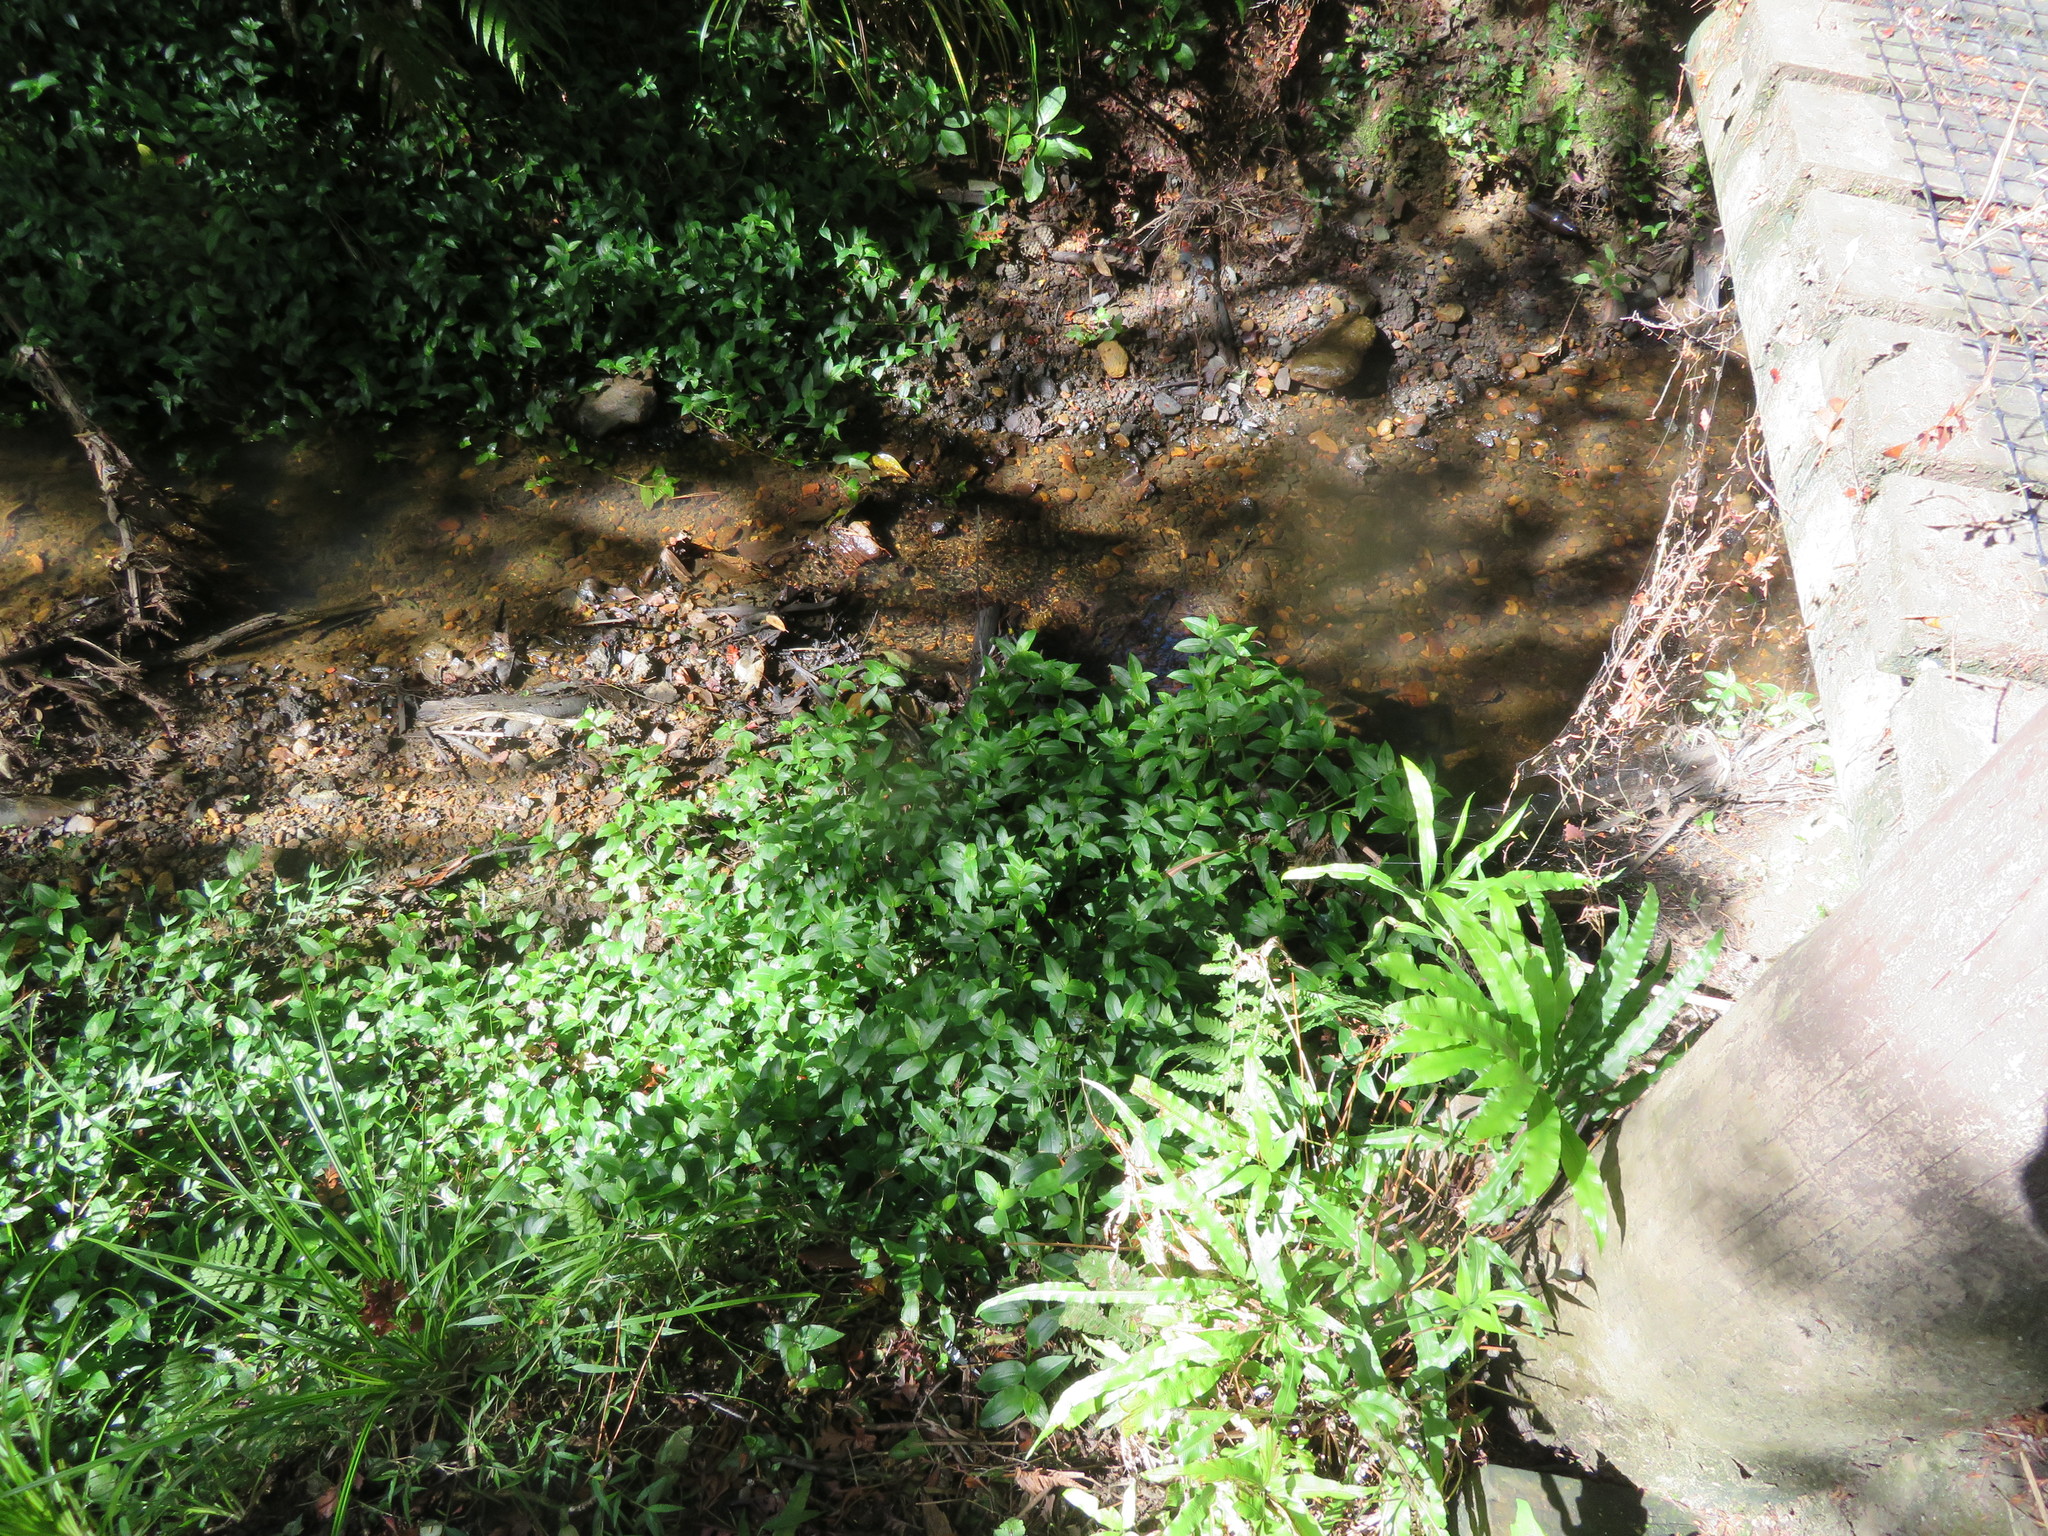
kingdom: Plantae
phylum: Tracheophyta
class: Polypodiopsida
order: Polypodiales
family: Pteridaceae
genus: Pteris
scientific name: Pteris cretica
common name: Ribbon fern
